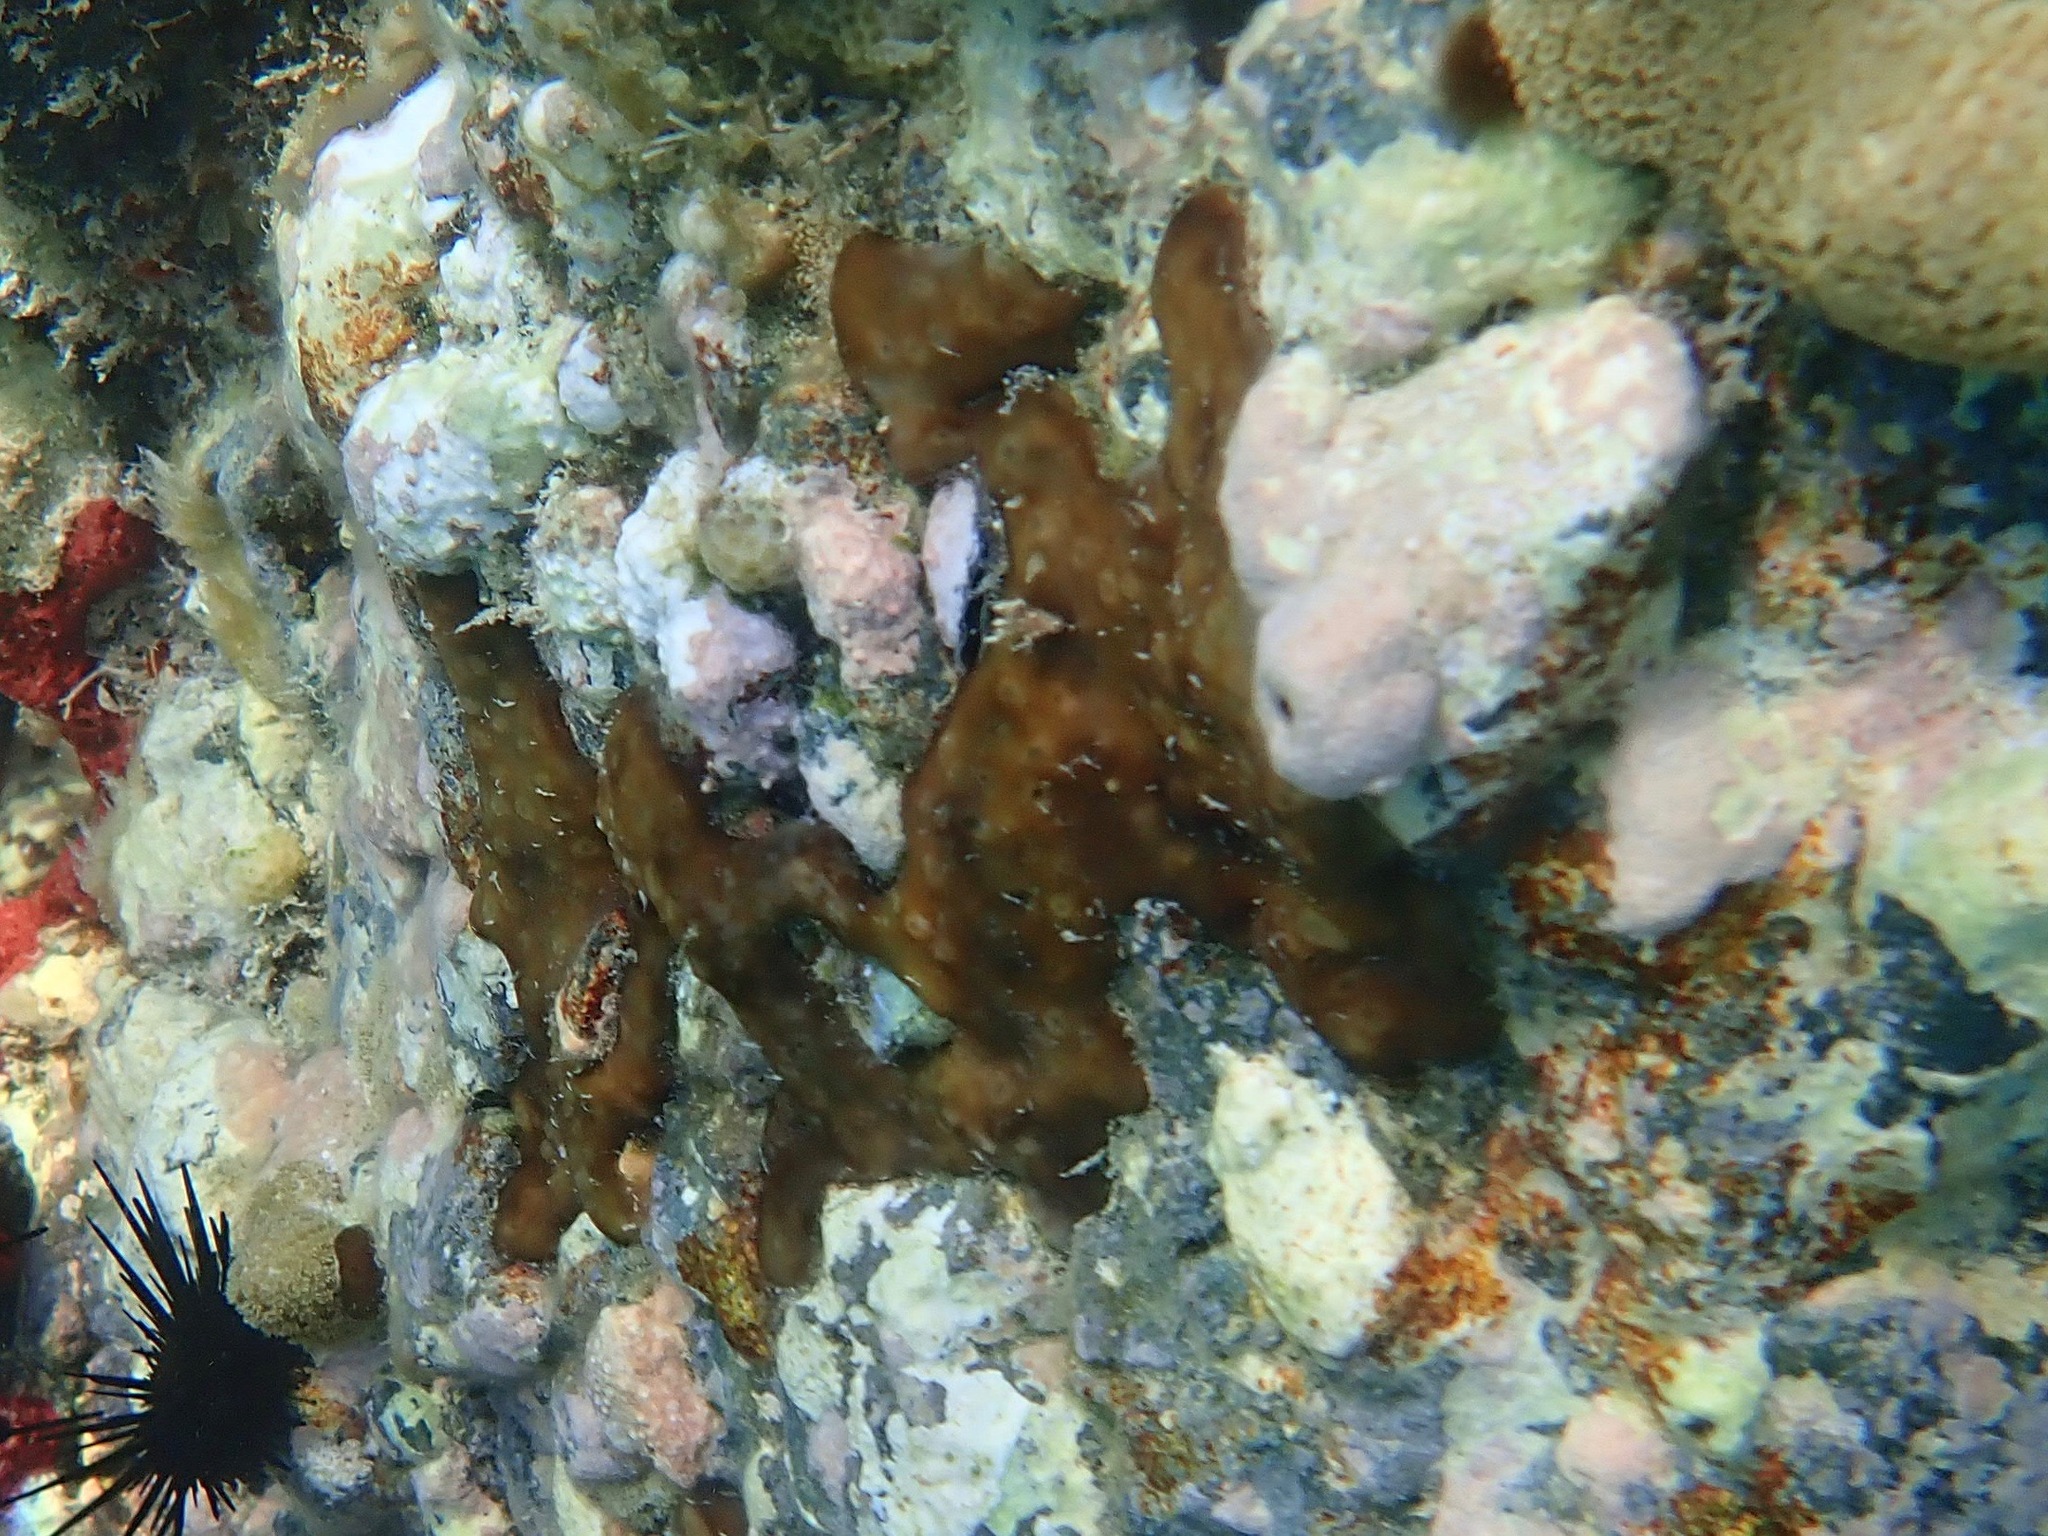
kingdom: Animalia
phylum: Porifera
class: Demospongiae
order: Chondrillida
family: Chondrillidae
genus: Chondrilla
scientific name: Chondrilla caribensis
